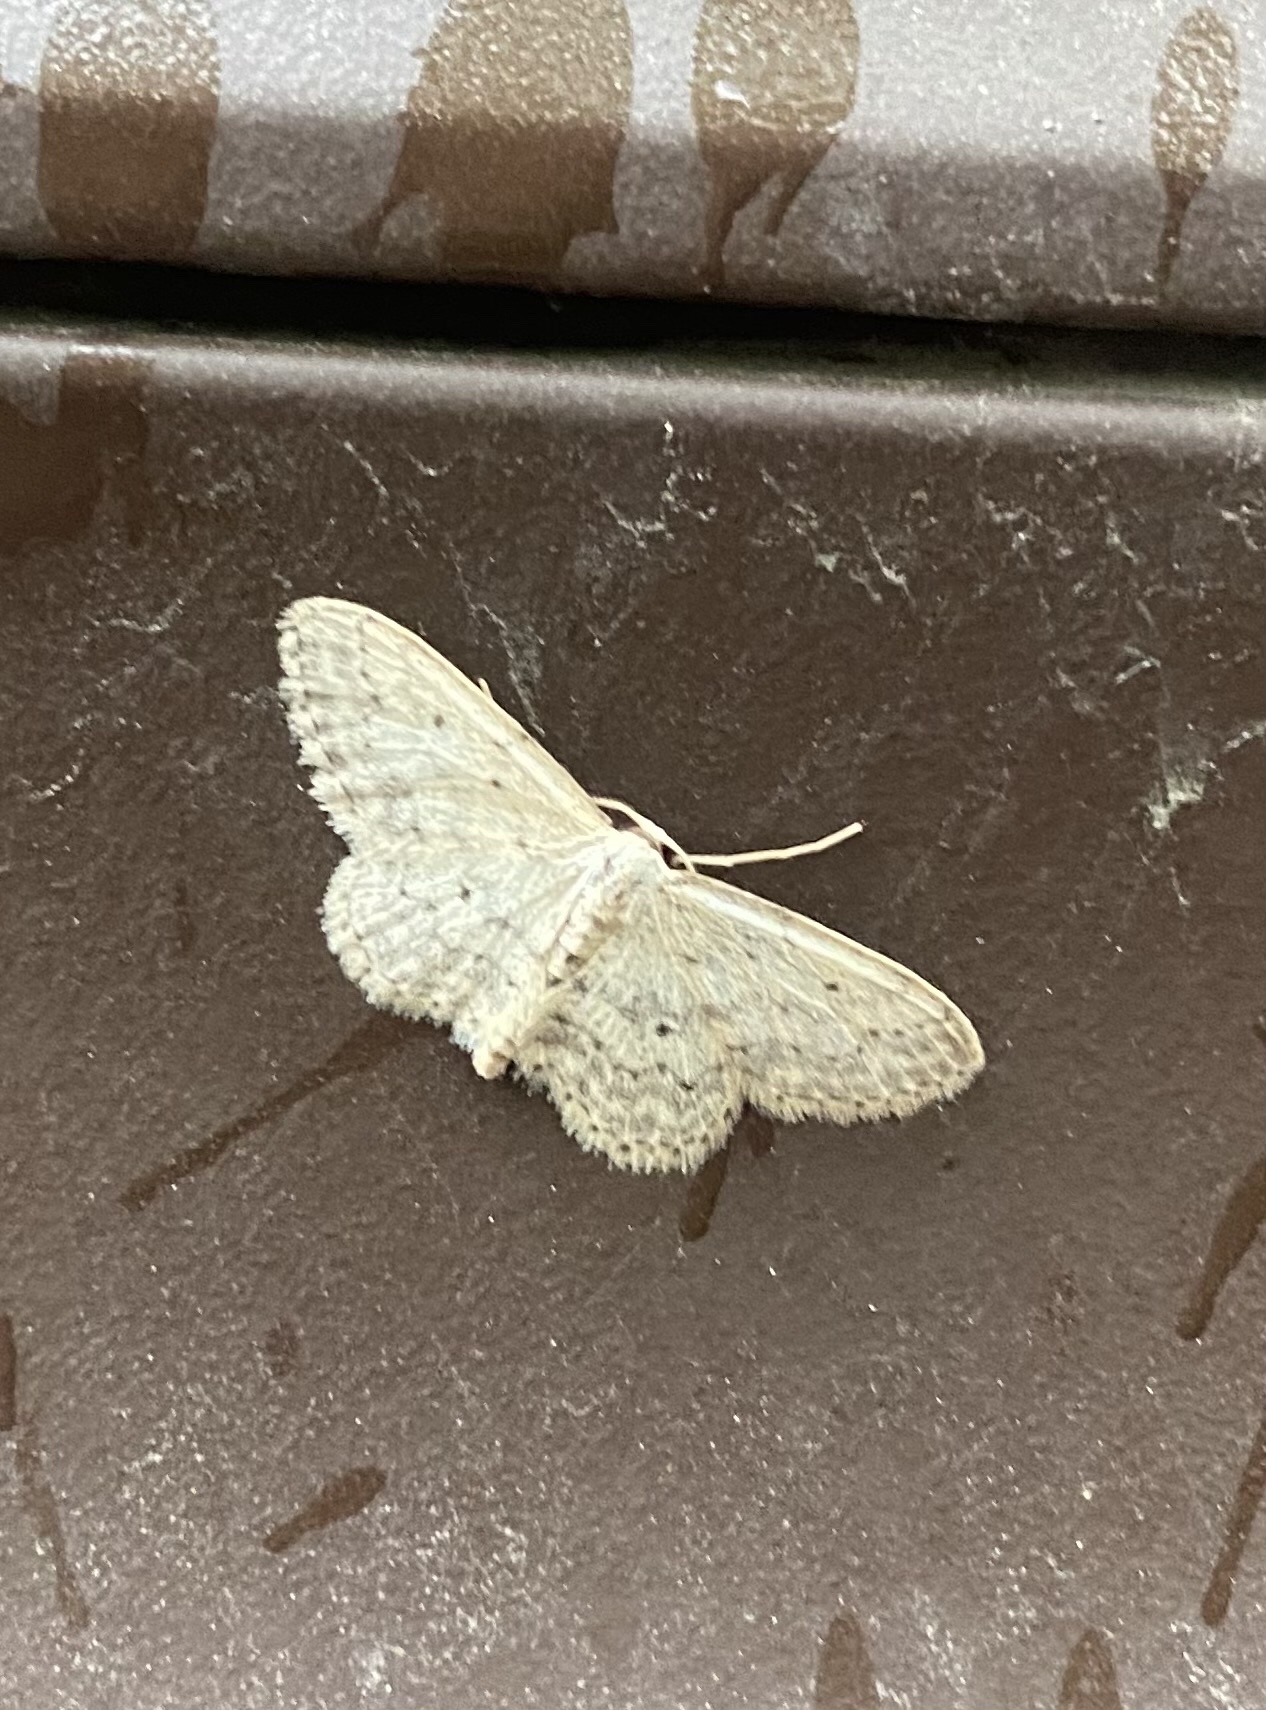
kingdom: Animalia
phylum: Arthropoda
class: Insecta
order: Lepidoptera
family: Geometridae
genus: Idaea
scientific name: Idaea seriata
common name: Small dusty wave
